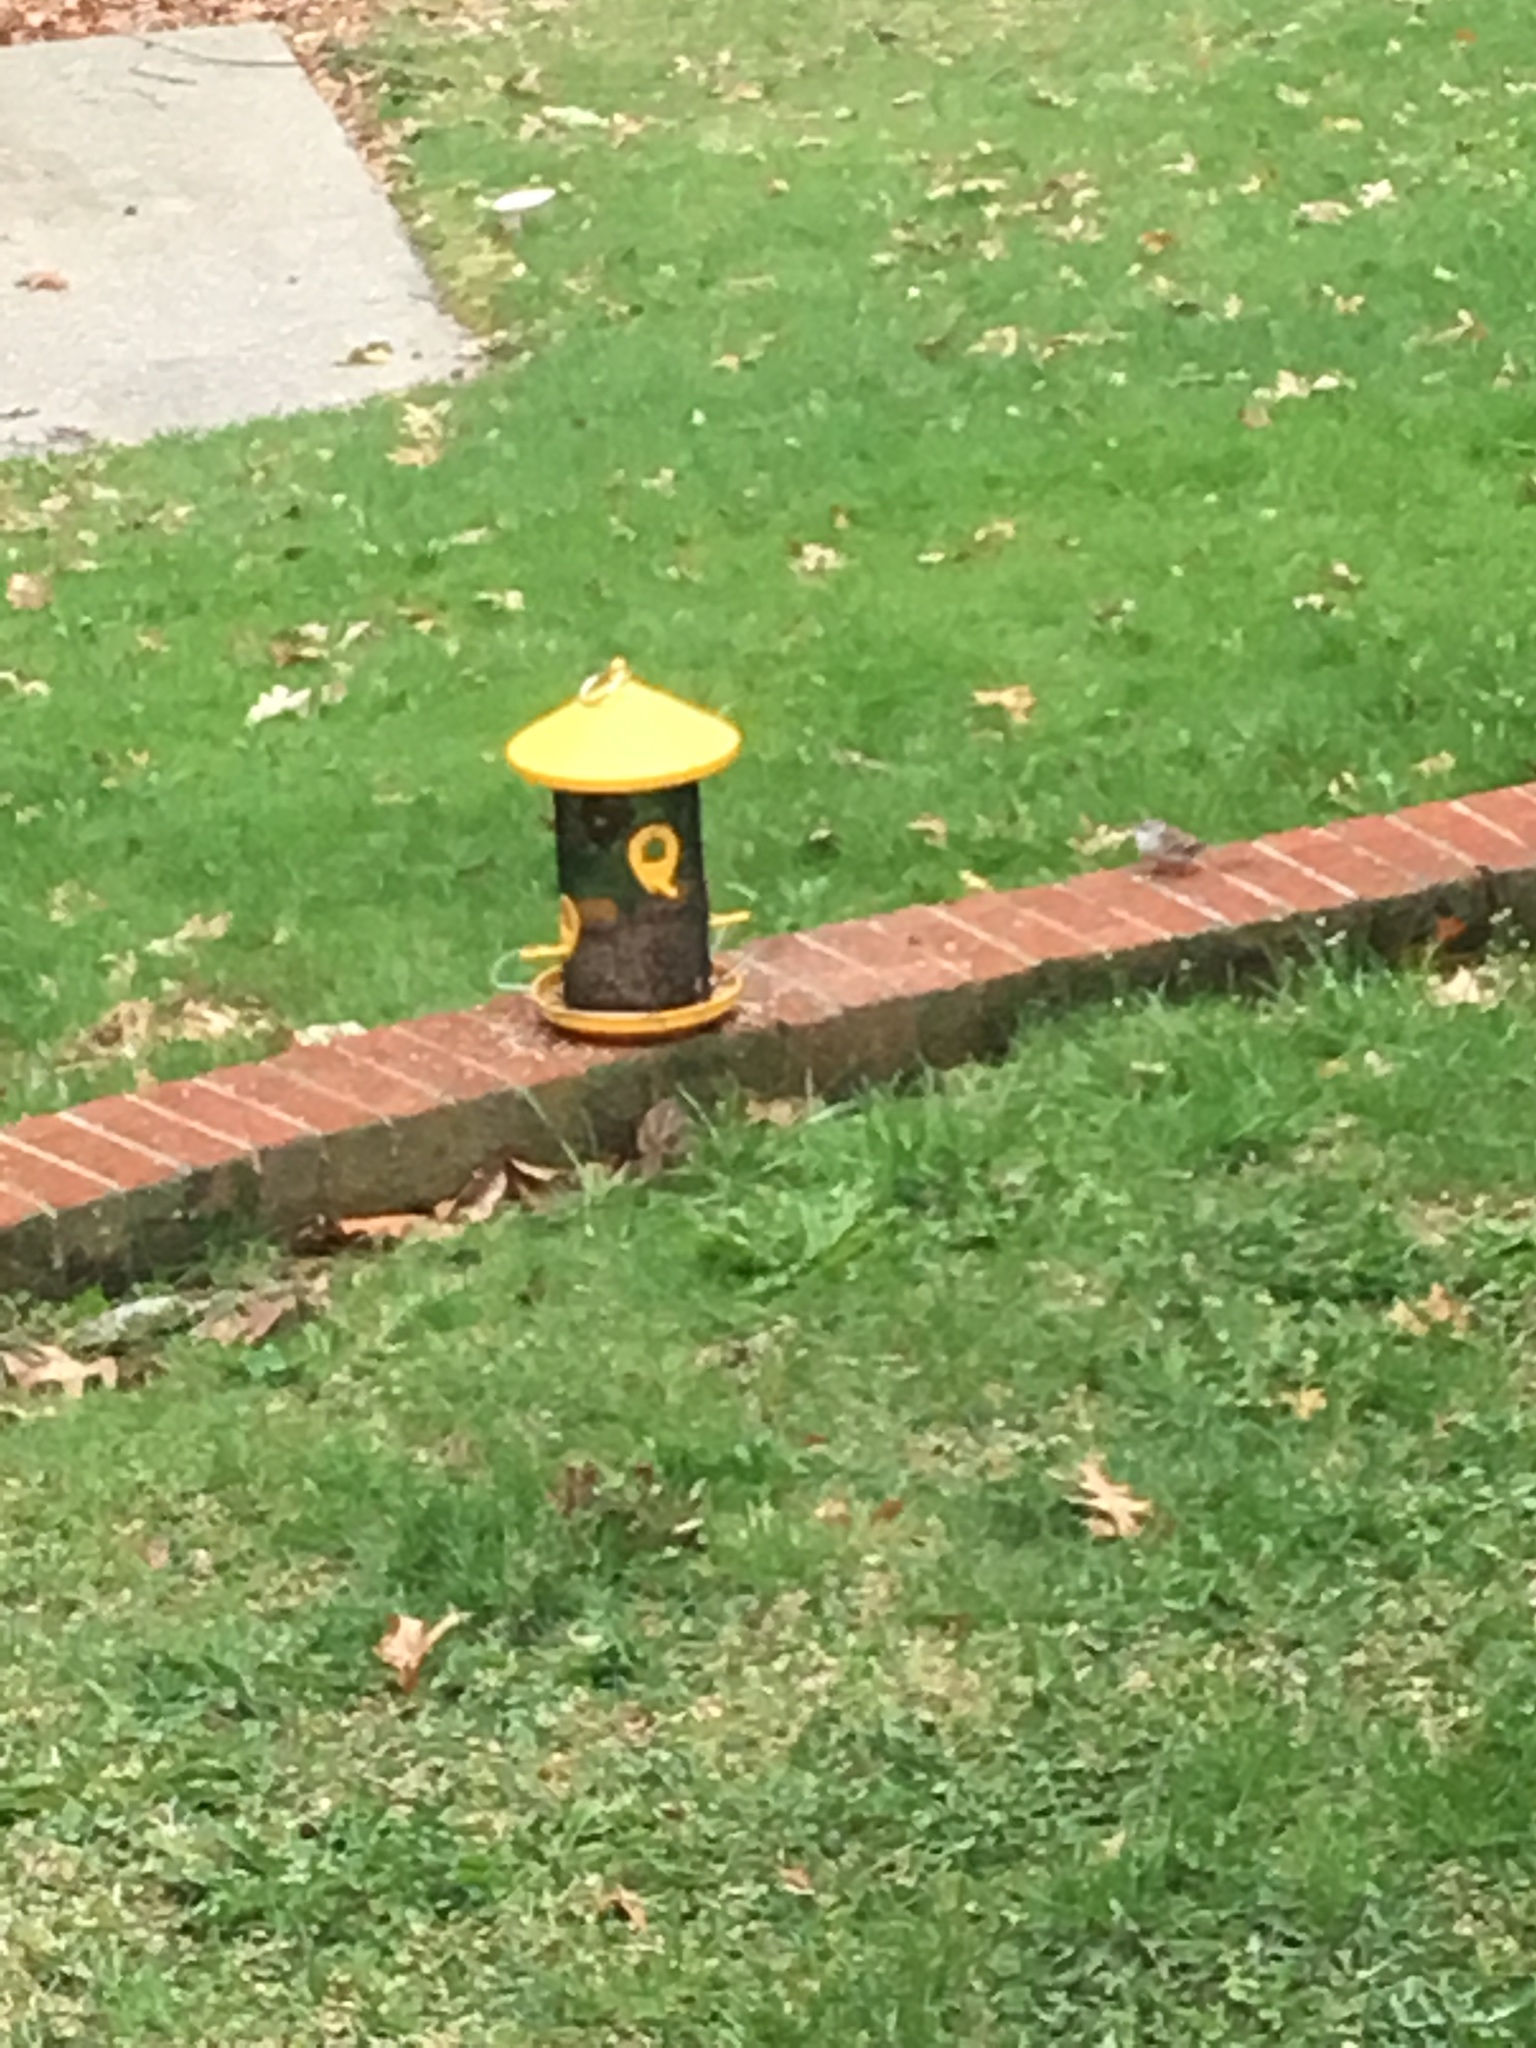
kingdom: Animalia
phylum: Chordata
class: Aves
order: Passeriformes
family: Passerellidae
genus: Spizella
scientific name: Spizella passerina
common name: Chipping sparrow
